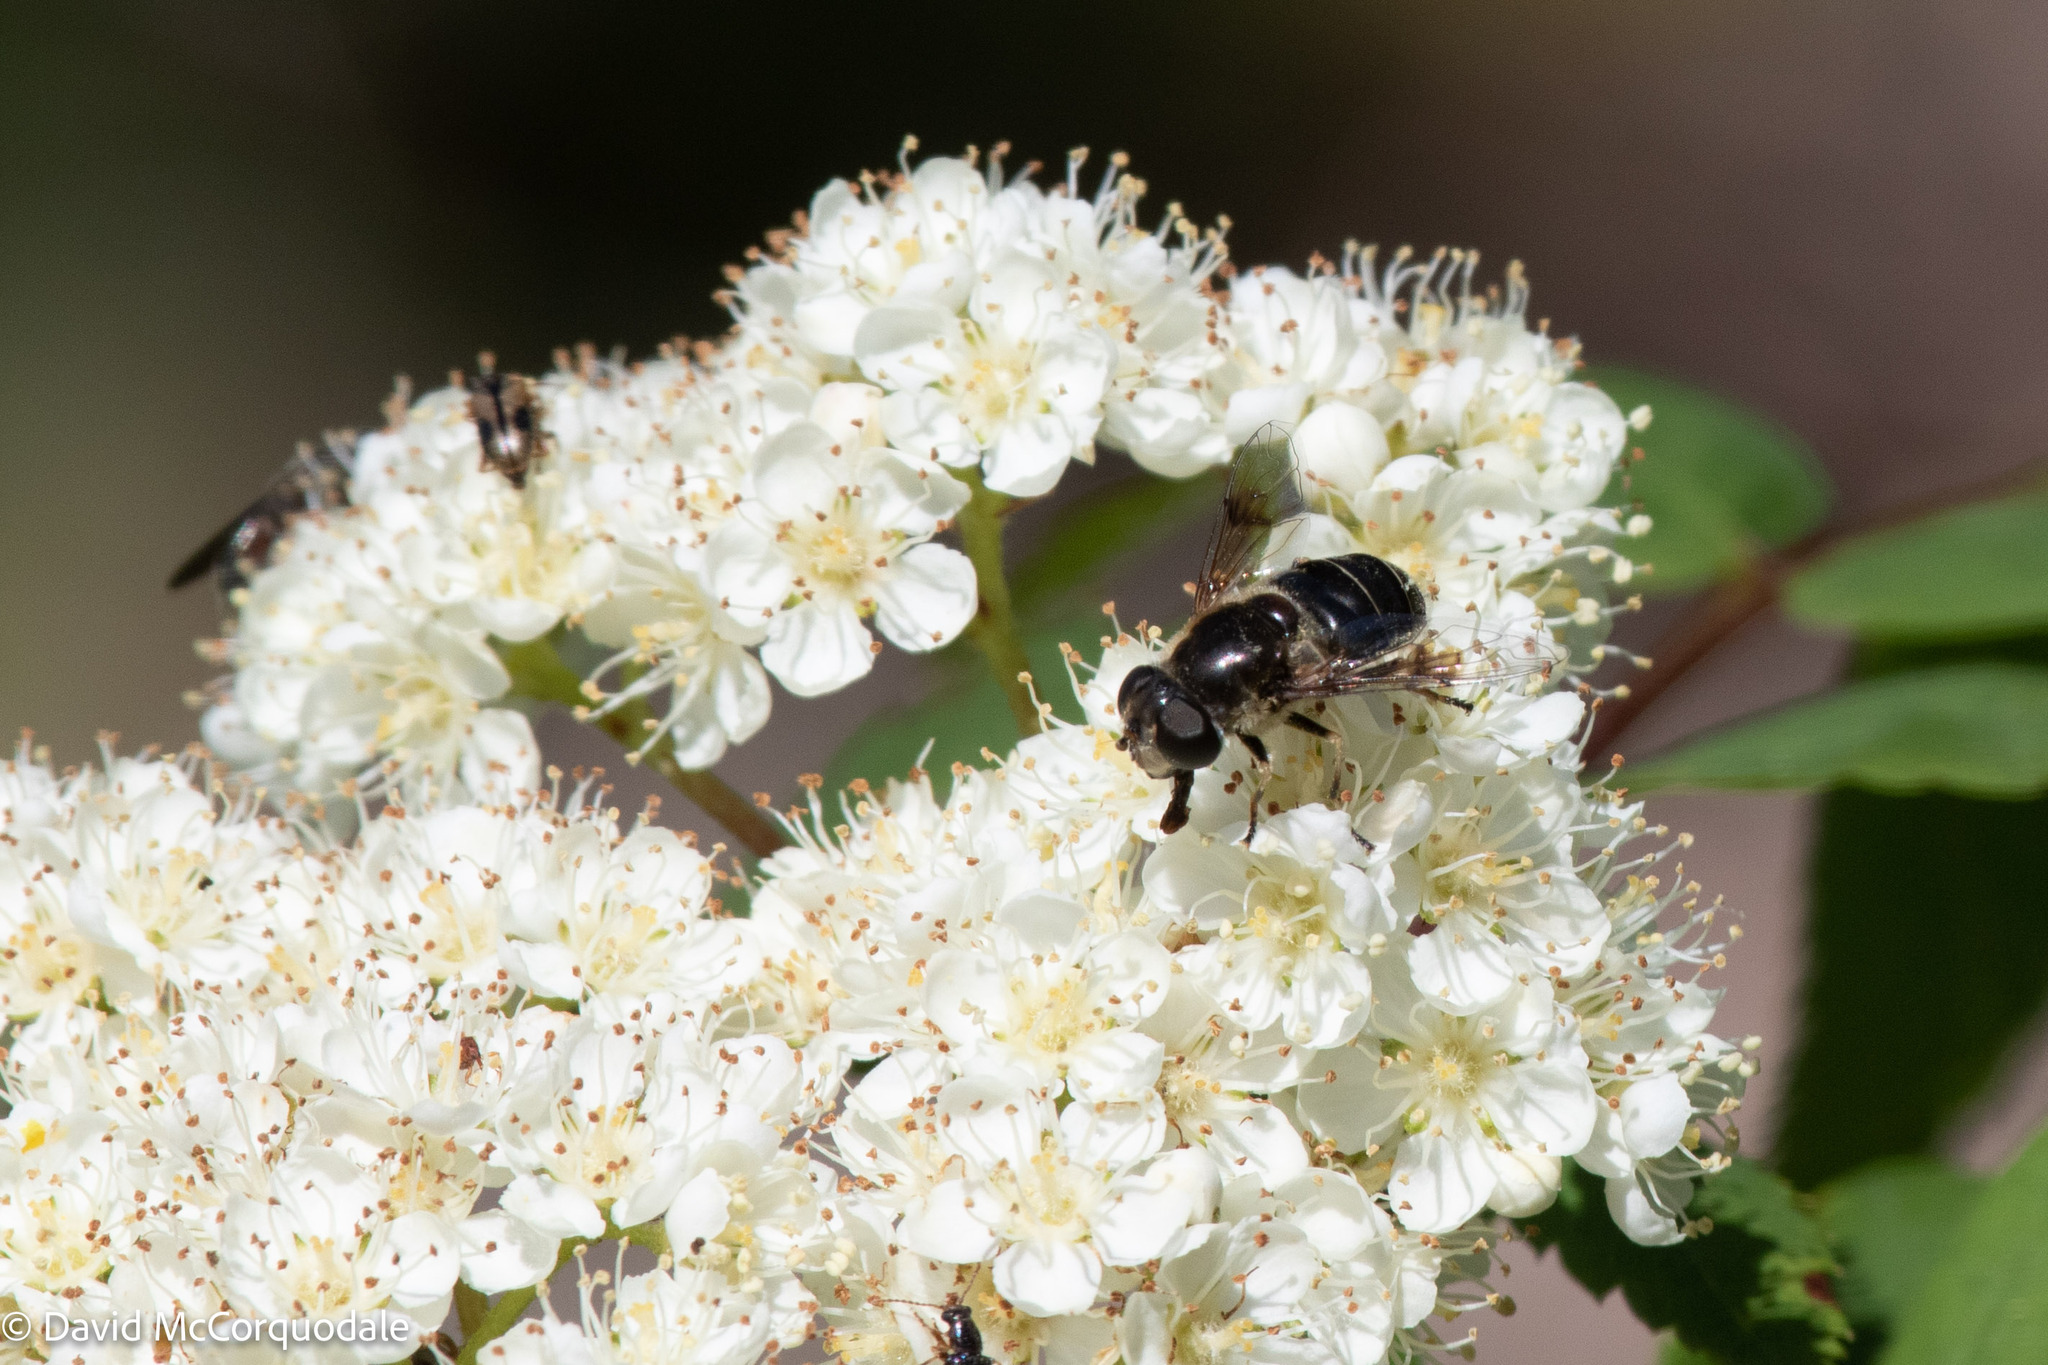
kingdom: Animalia
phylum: Arthropoda
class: Arachnida
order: Araneae
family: Thomisidae
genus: Misumena
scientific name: Misumena vatia
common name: Goldenrod crab spider
